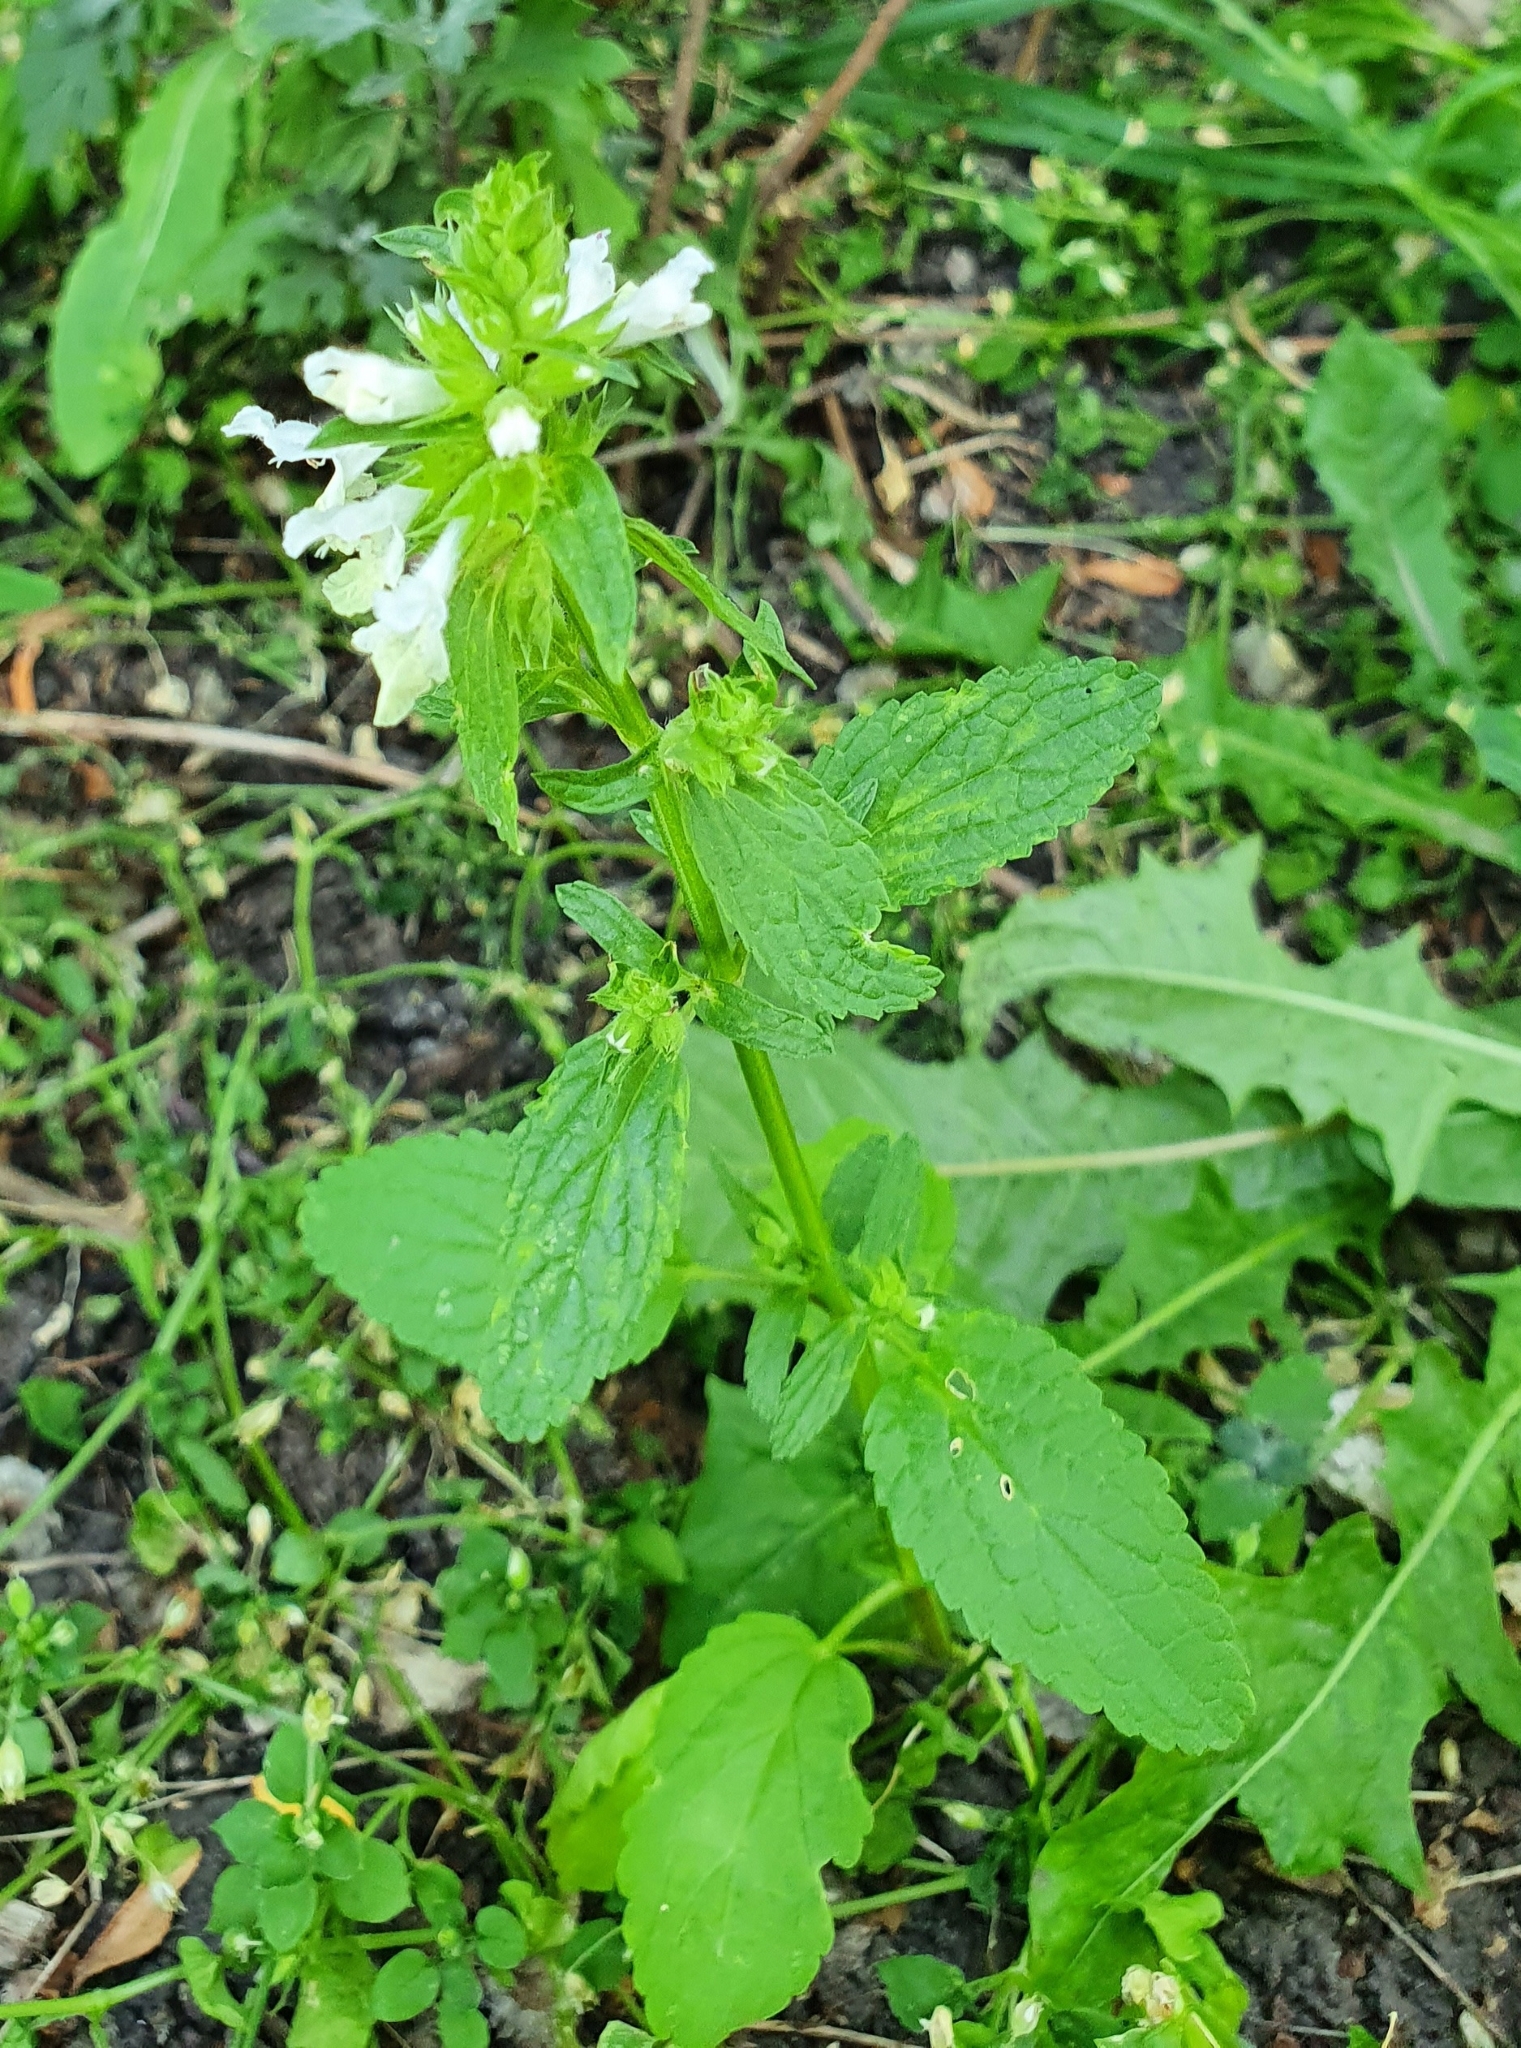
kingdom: Plantae
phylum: Tracheophyta
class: Magnoliopsida
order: Lamiales
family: Lamiaceae
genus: Stachys
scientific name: Stachys annua
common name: Annual yellow-woundwort
